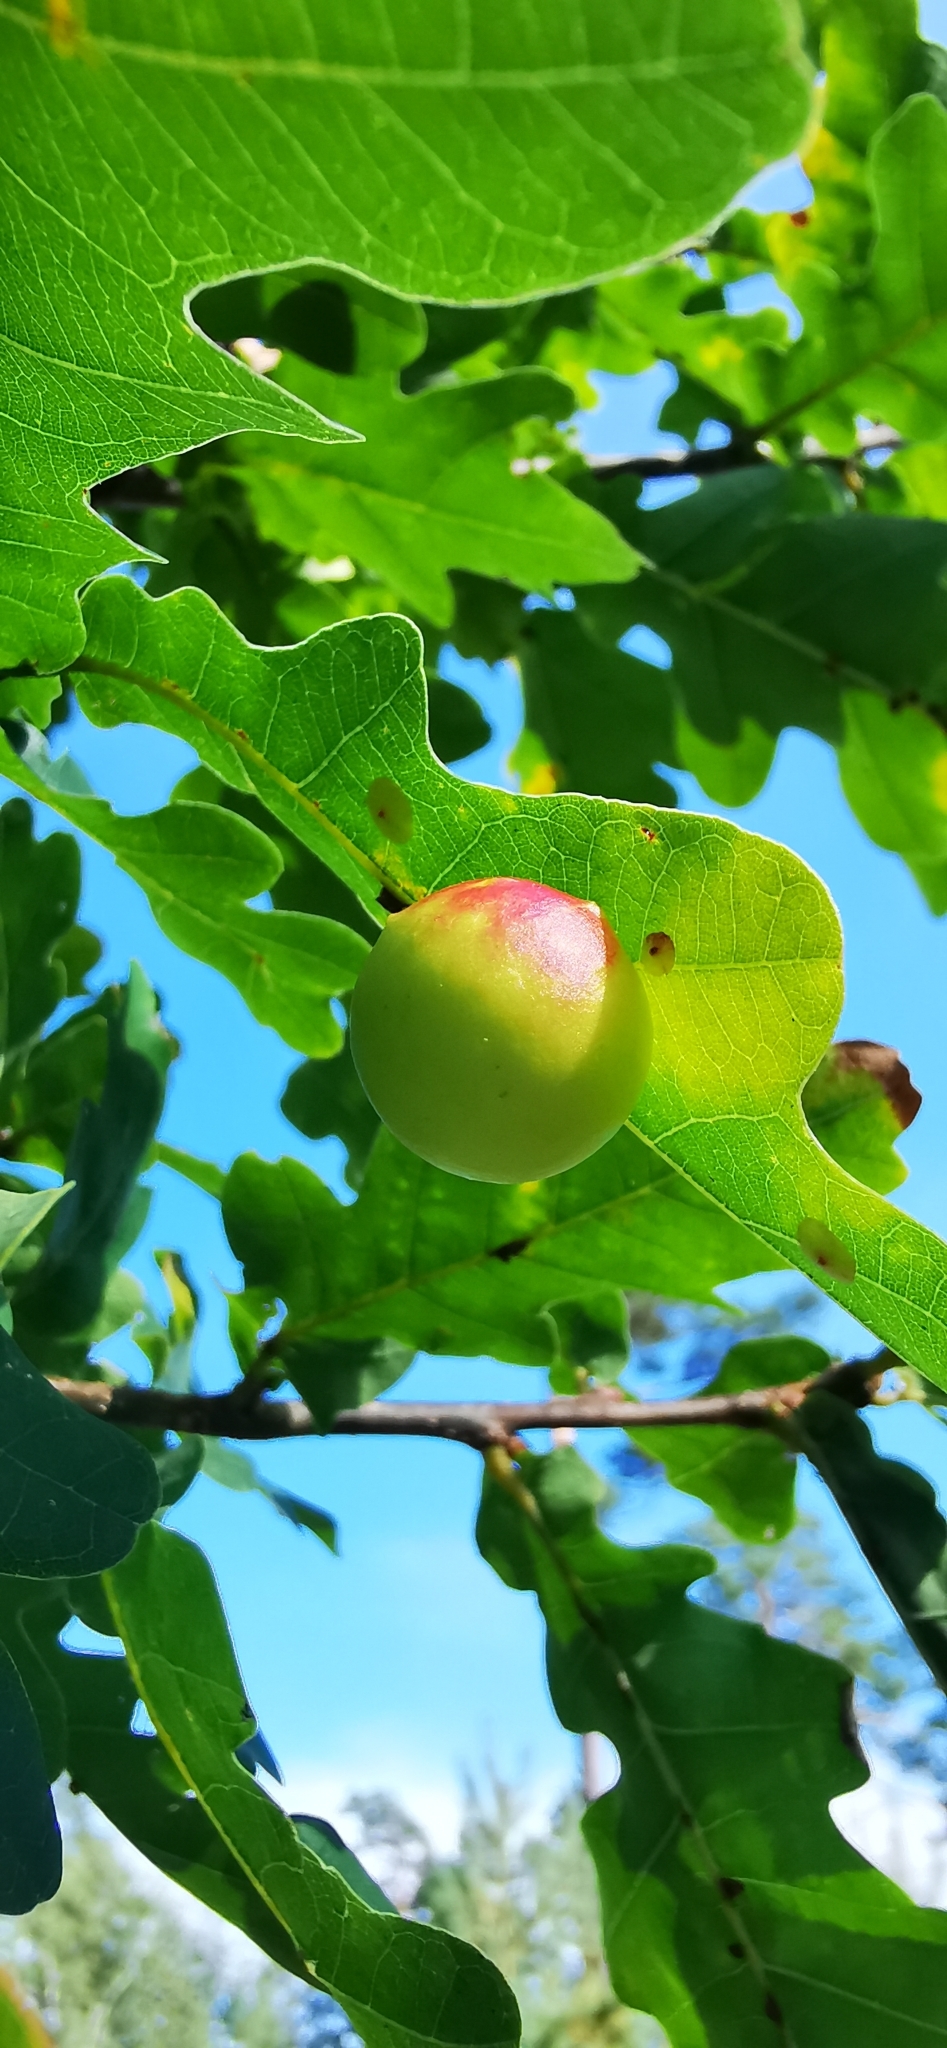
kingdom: Animalia
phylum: Arthropoda
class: Insecta
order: Hymenoptera
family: Cynipidae
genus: Cynips
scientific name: Cynips quercusfolii
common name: Cherry gall
